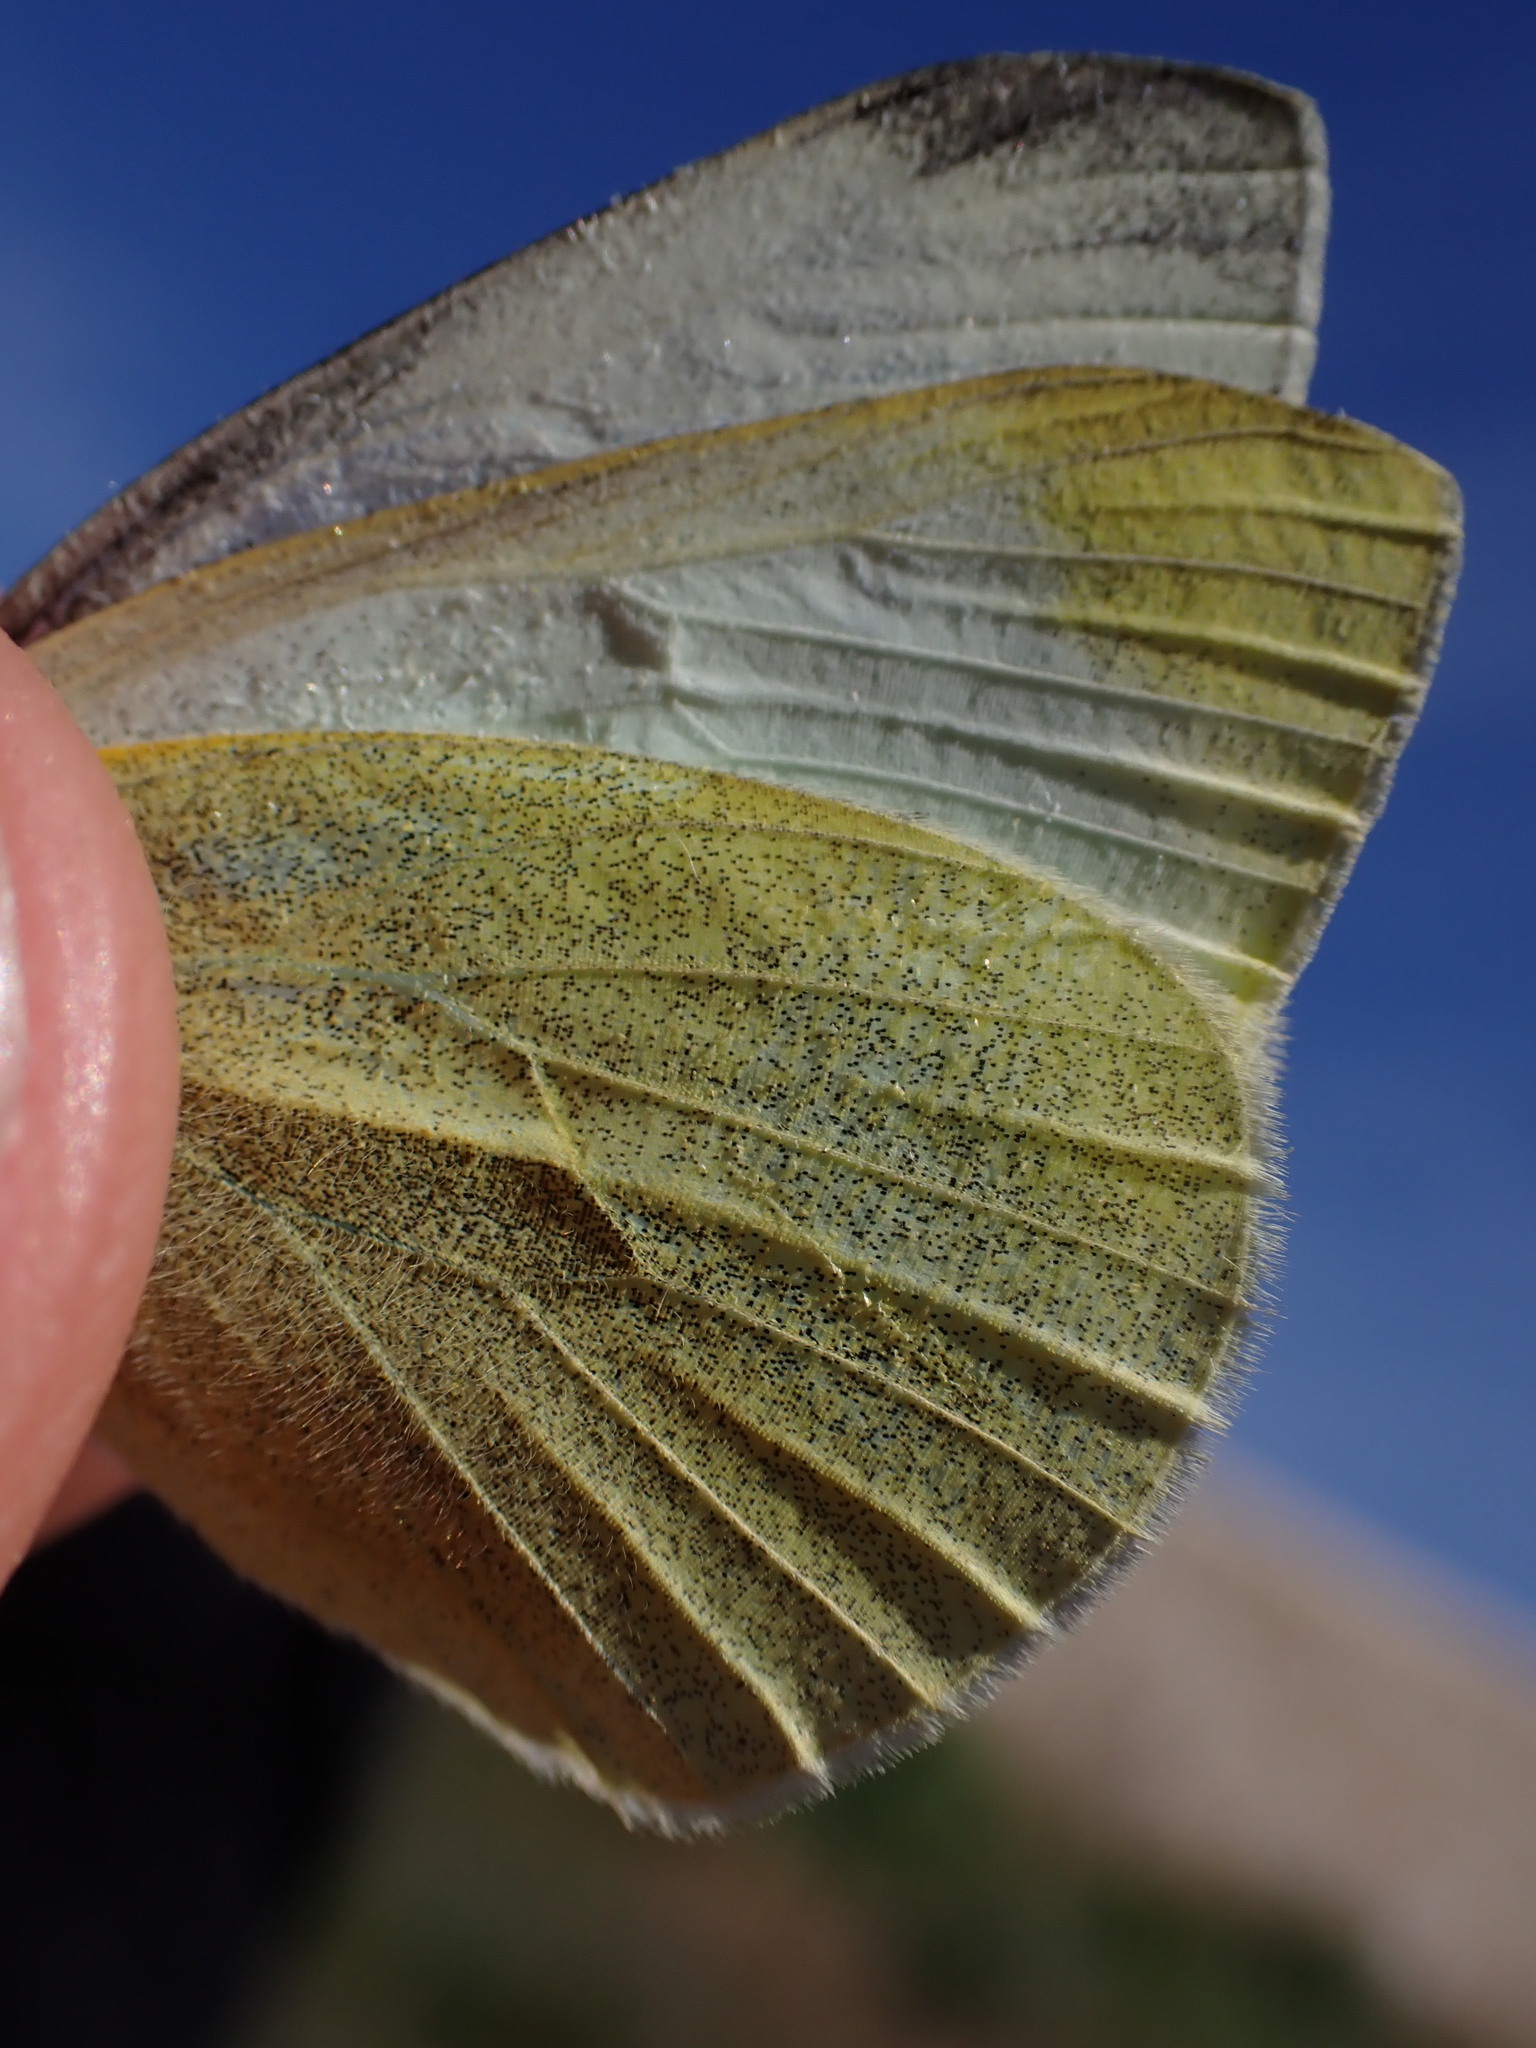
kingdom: Animalia
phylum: Arthropoda
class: Insecta
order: Lepidoptera
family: Pieridae
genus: Pieris
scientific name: Pieris rapae
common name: Small white
